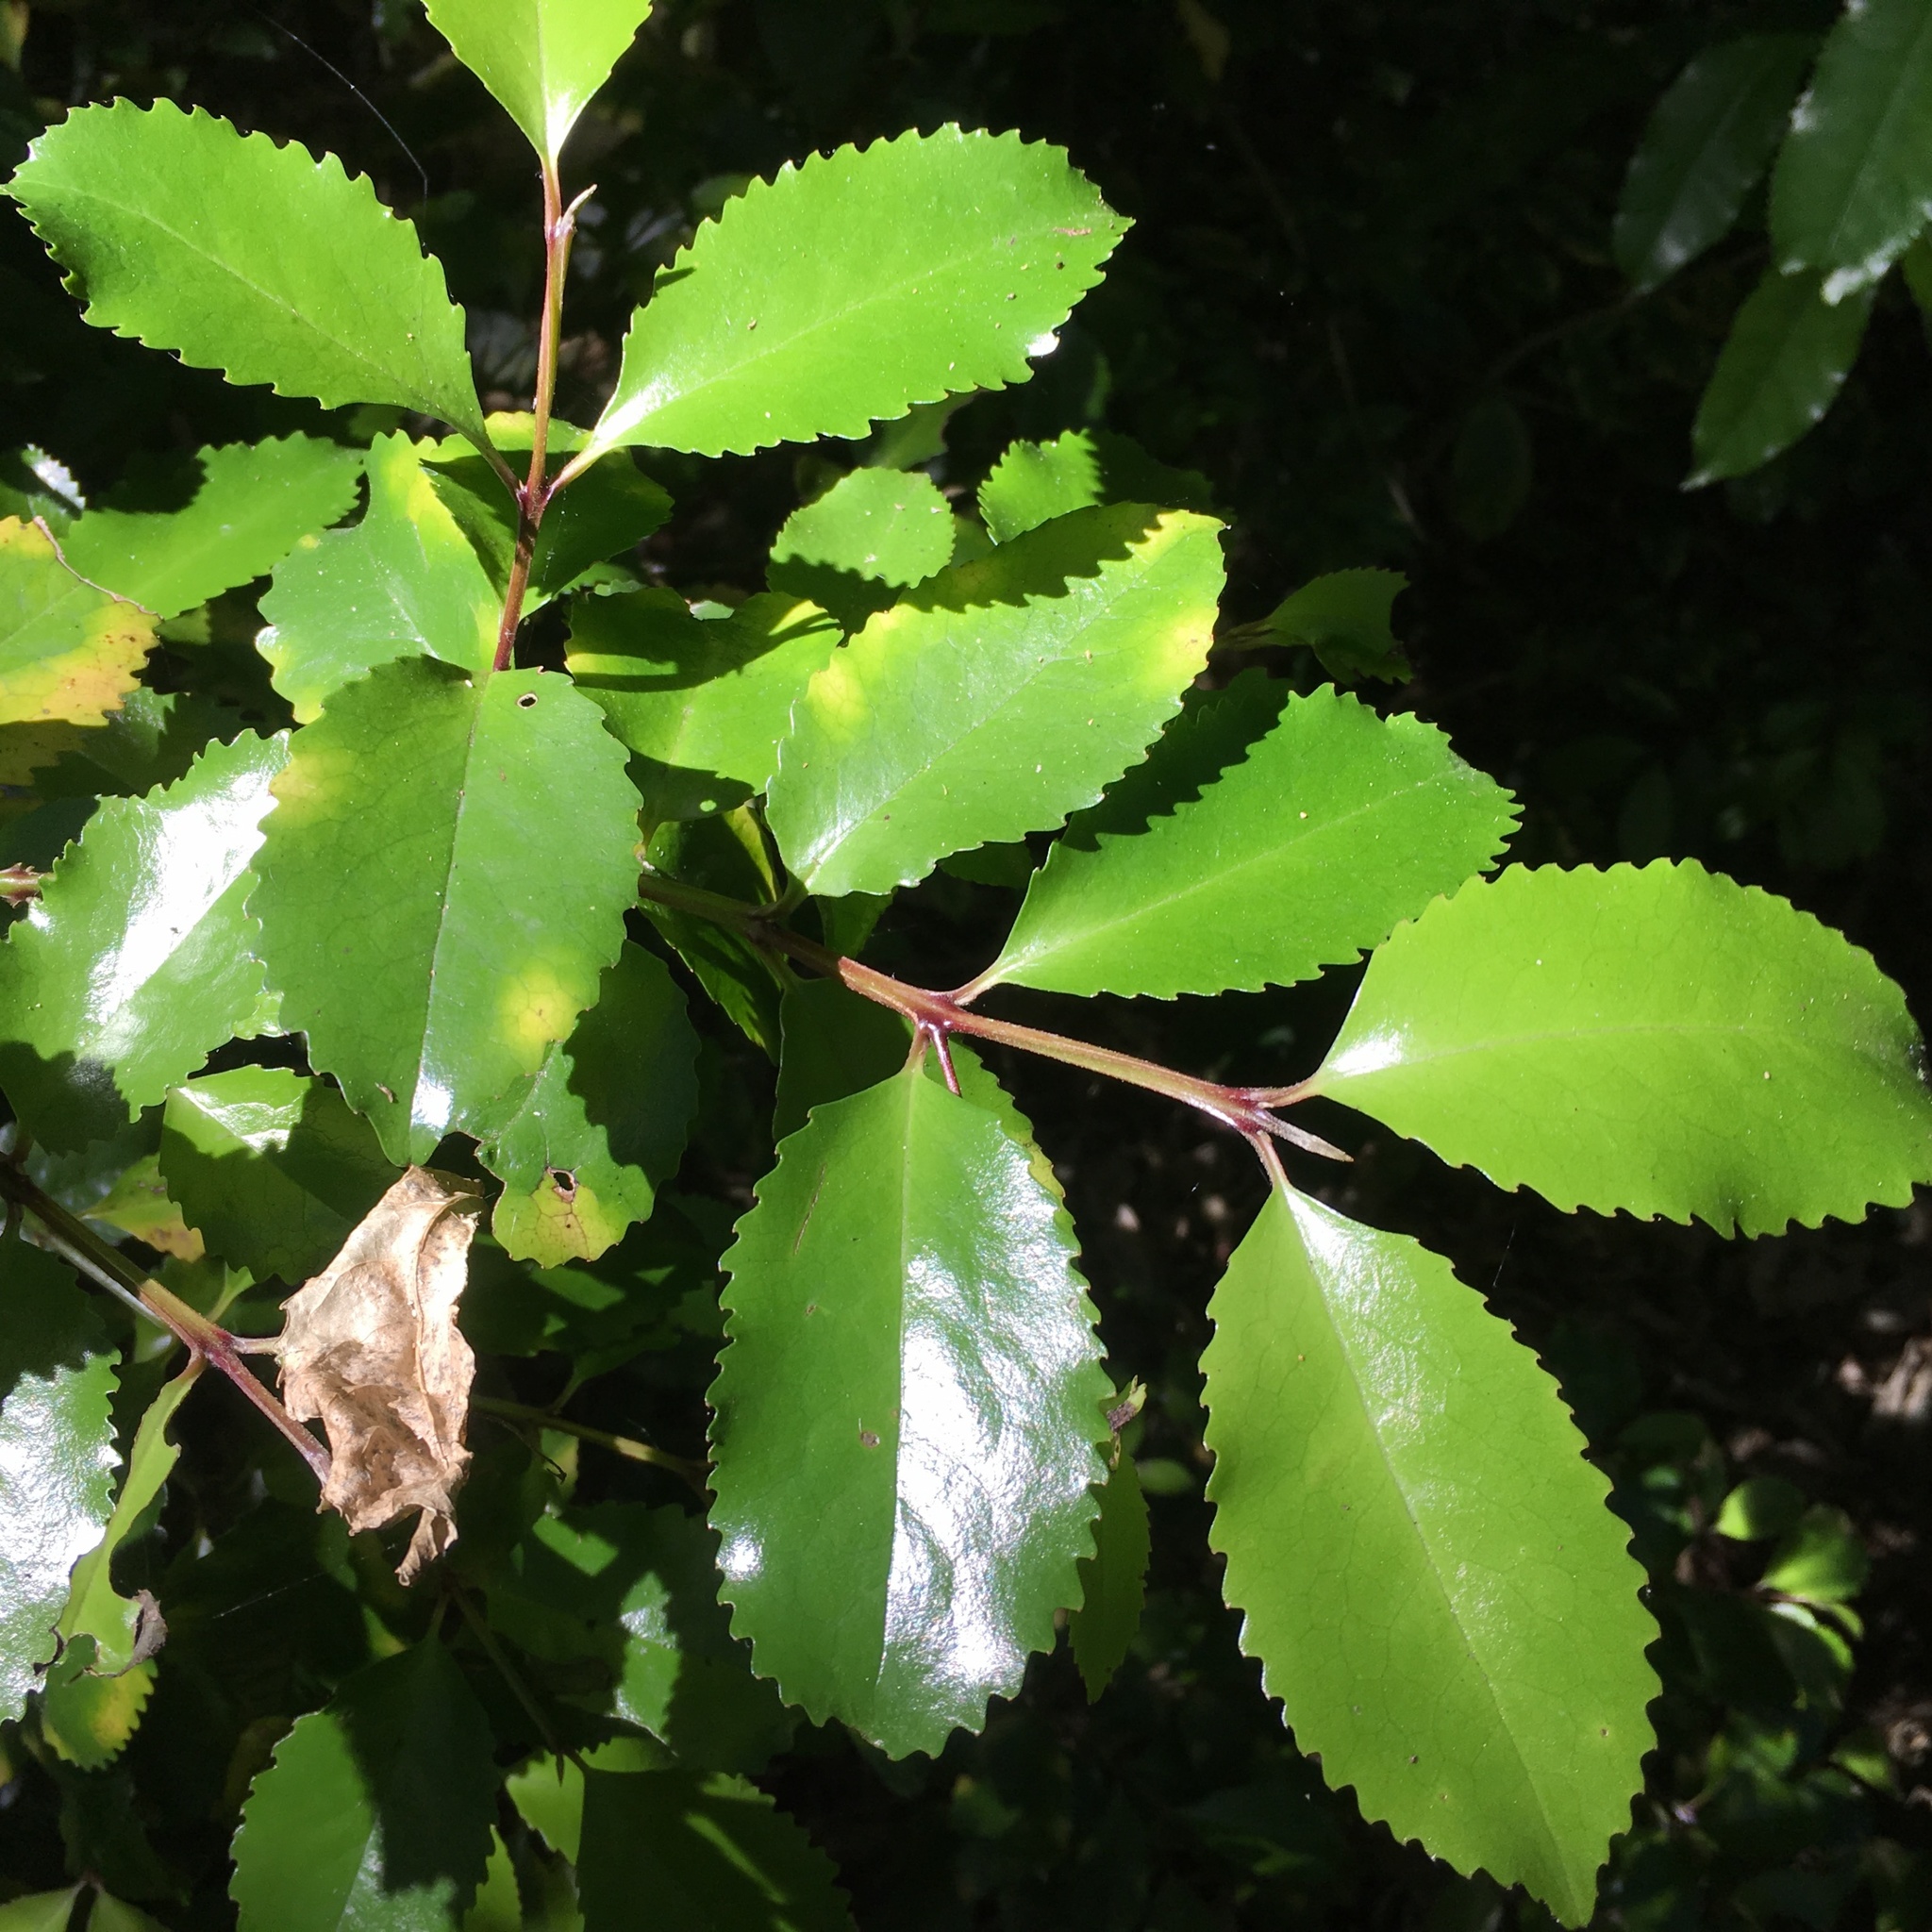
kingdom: Plantae
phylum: Tracheophyta
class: Magnoliopsida
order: Laurales
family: Atherospermataceae
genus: Laurelia
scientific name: Laurelia novae-zelandiae
